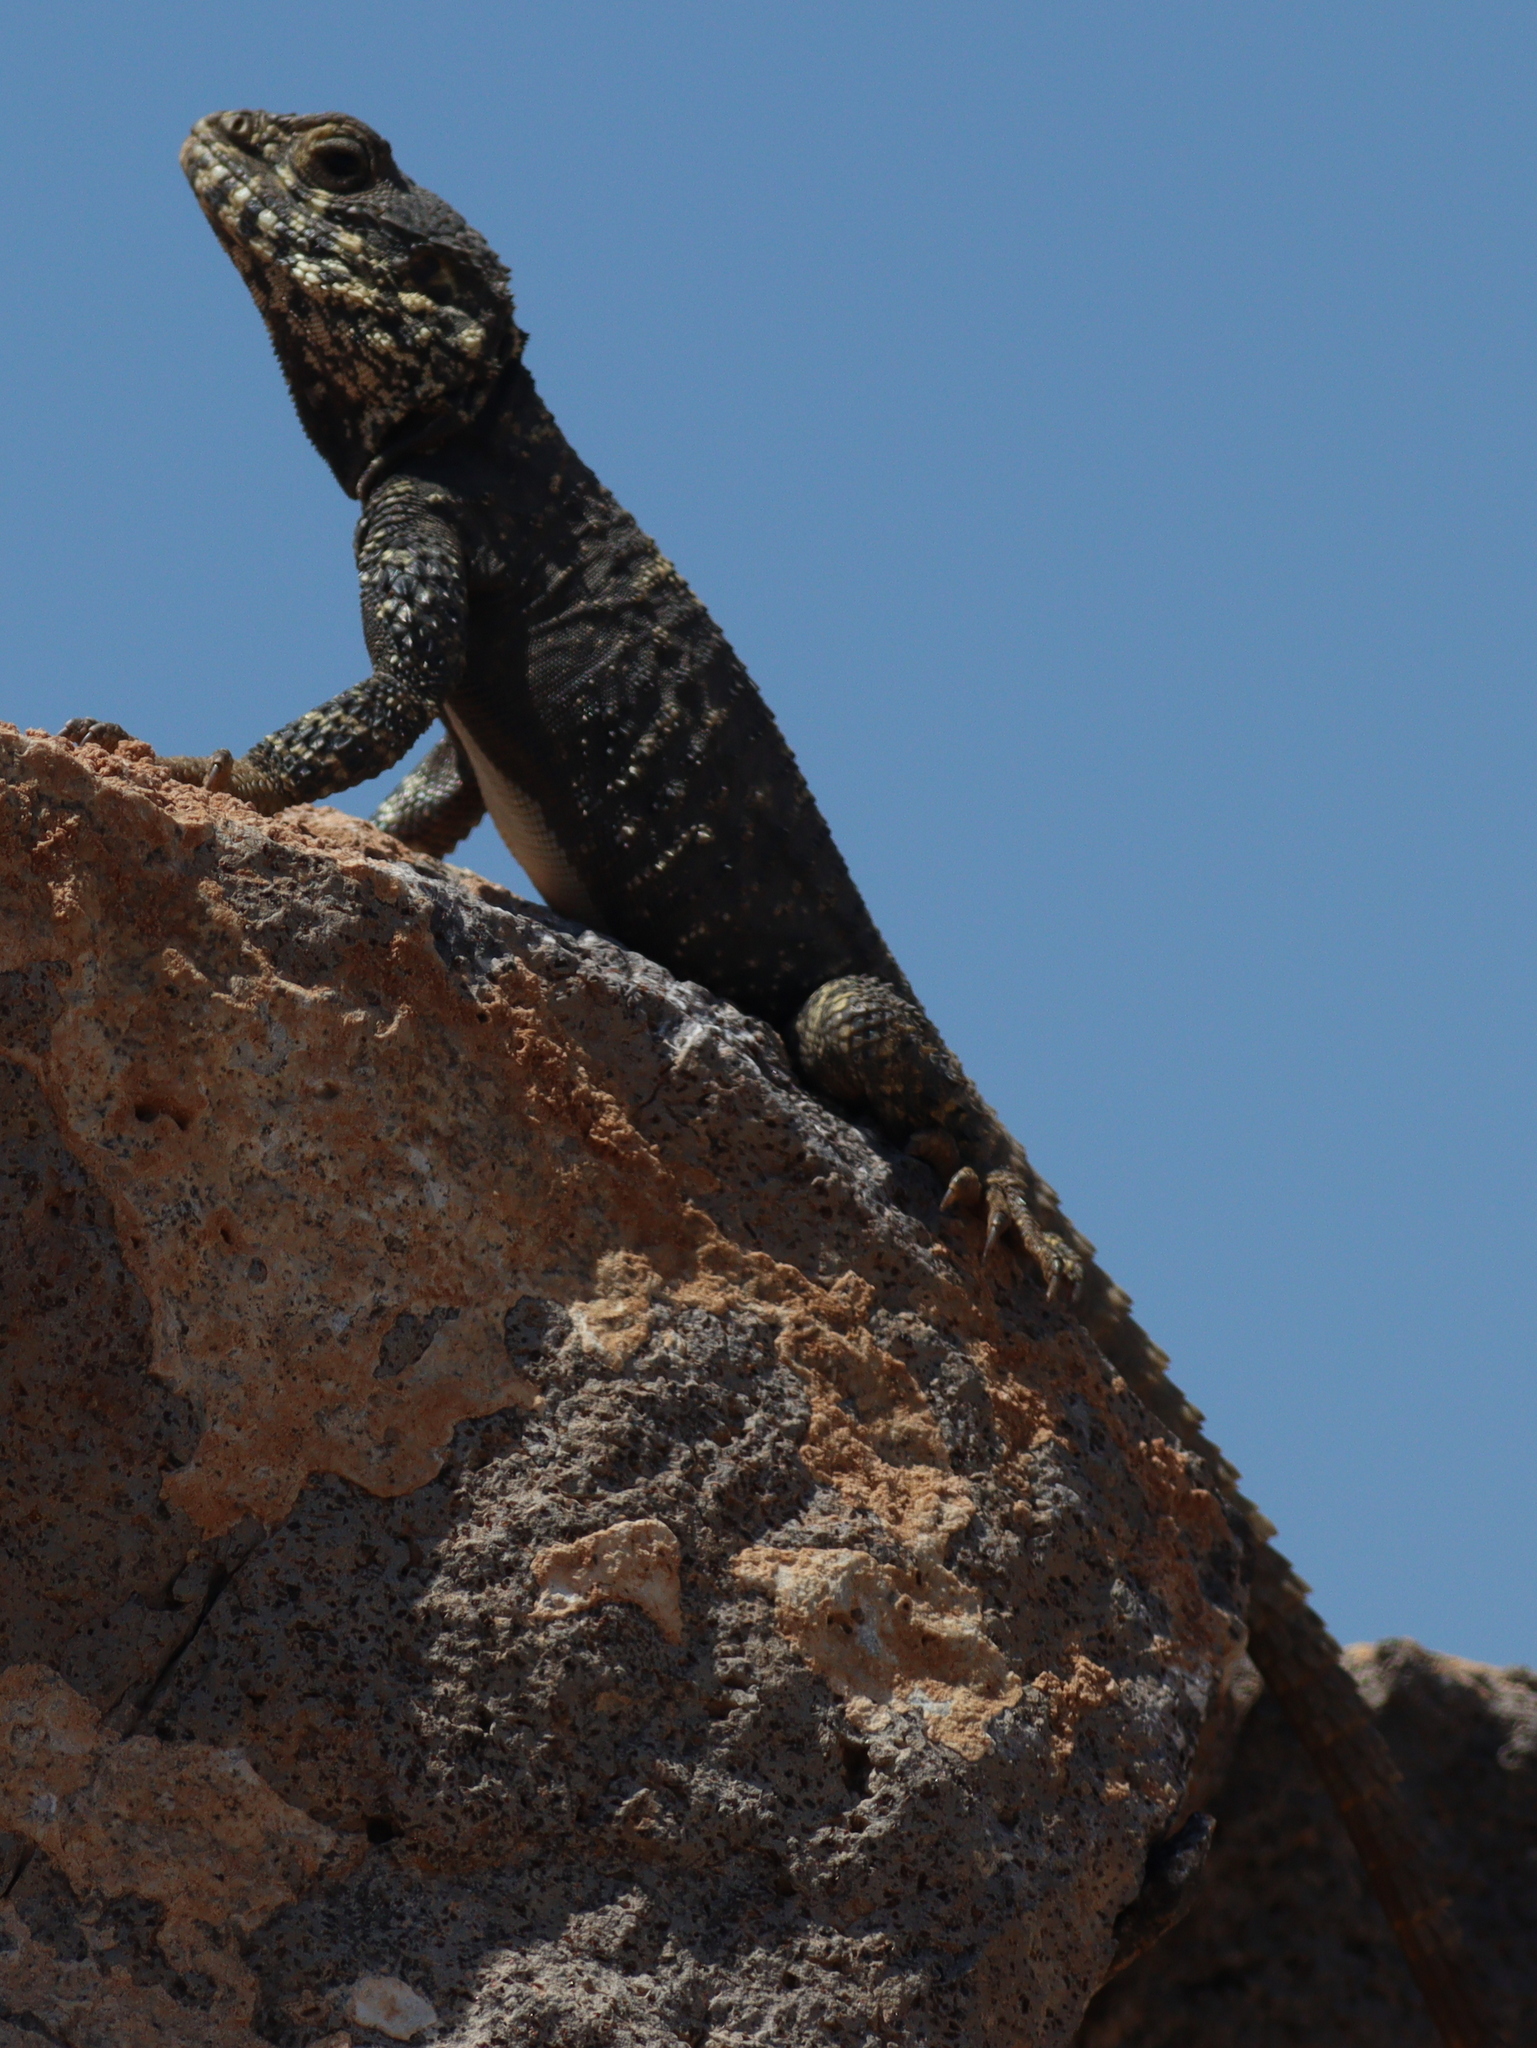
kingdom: Animalia
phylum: Chordata
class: Squamata
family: Agamidae
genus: Stellagama
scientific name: Stellagama stellio
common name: Starred agama
